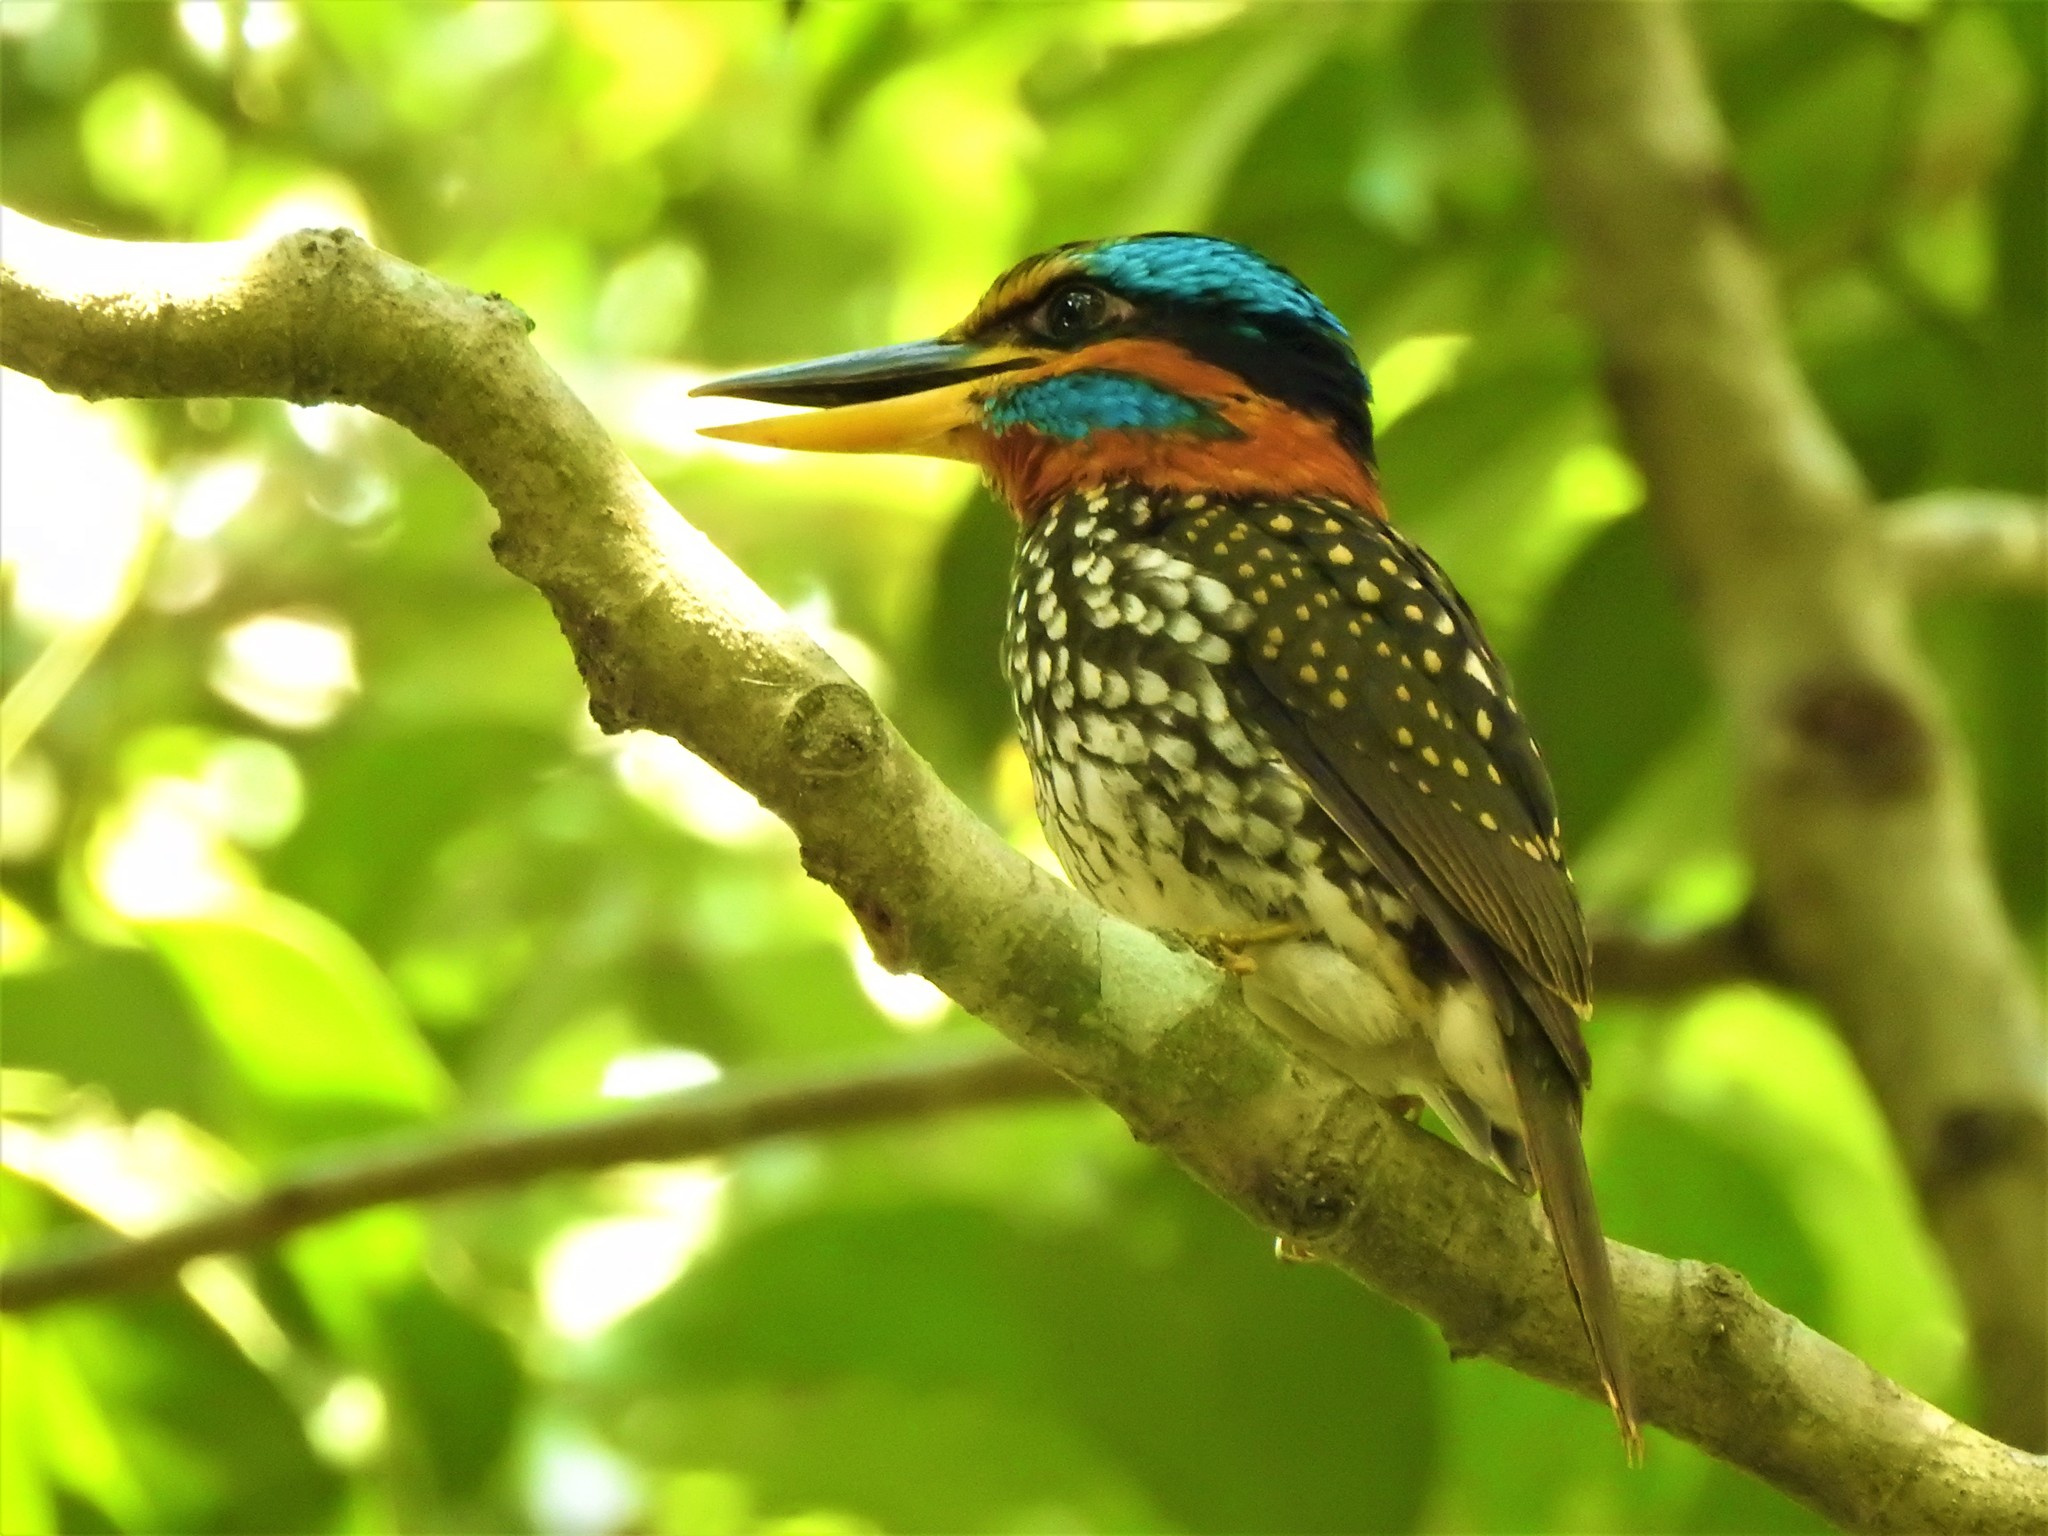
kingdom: Animalia
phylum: Chordata
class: Aves
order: Coraciiformes
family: Alcedinidae
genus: Actenoides
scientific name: Actenoides lindsayi
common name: Spotted wood kingfisher
